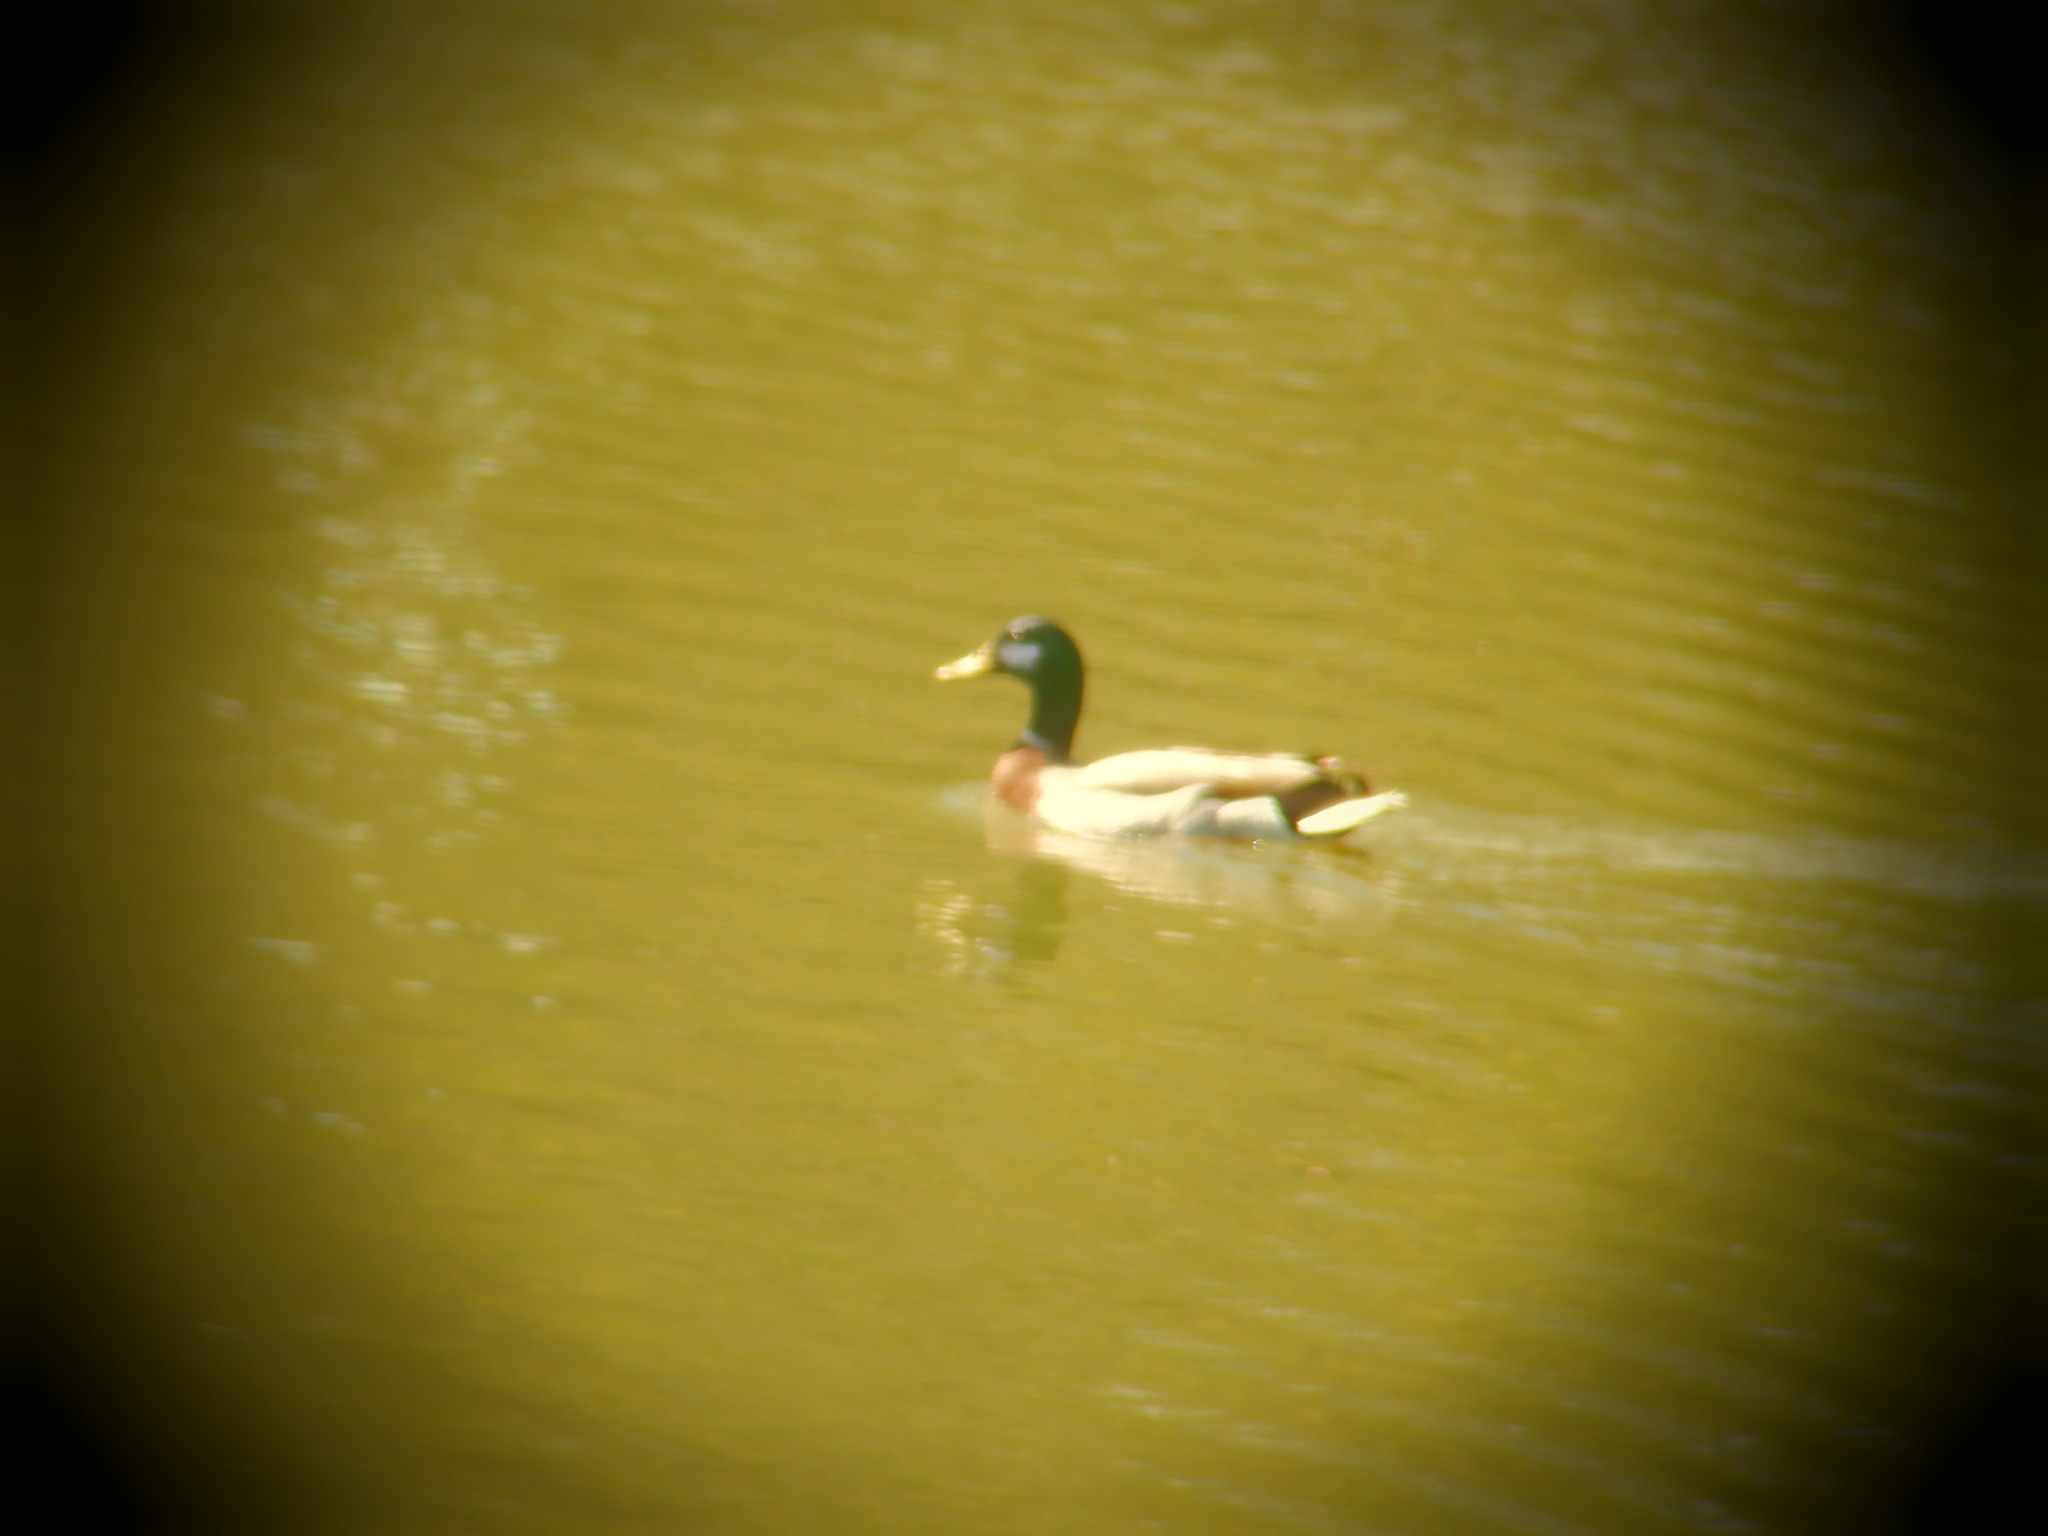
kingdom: Animalia
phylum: Chordata
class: Aves
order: Anseriformes
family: Anatidae
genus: Anas
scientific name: Anas platyrhynchos
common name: Mallard
